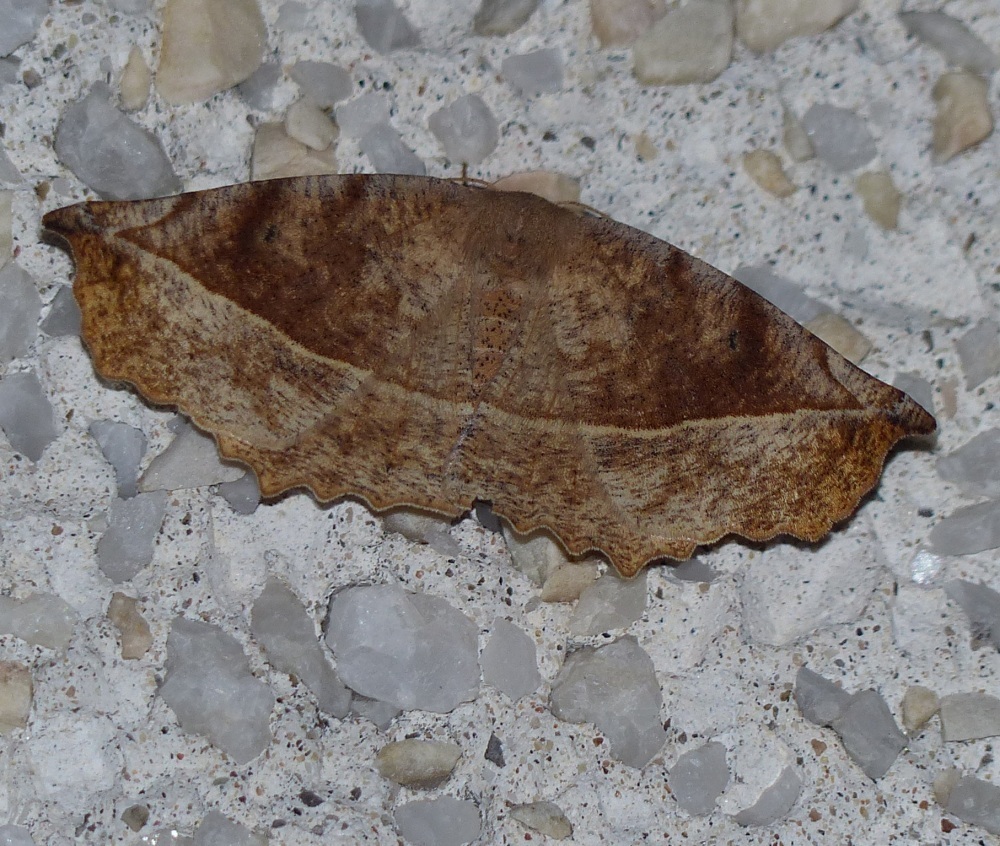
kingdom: Animalia
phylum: Arthropoda
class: Insecta
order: Lepidoptera
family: Geometridae
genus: Eutrapela
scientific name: Eutrapela clemataria
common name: Curved-toothed geometer
